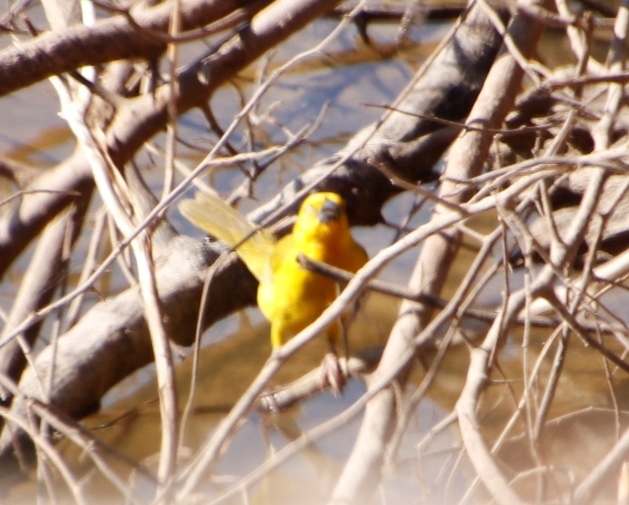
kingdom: Animalia
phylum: Chordata
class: Aves
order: Passeriformes
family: Ploceidae
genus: Ploceus
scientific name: Ploceus xanthops
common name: Holub's golden weaver
